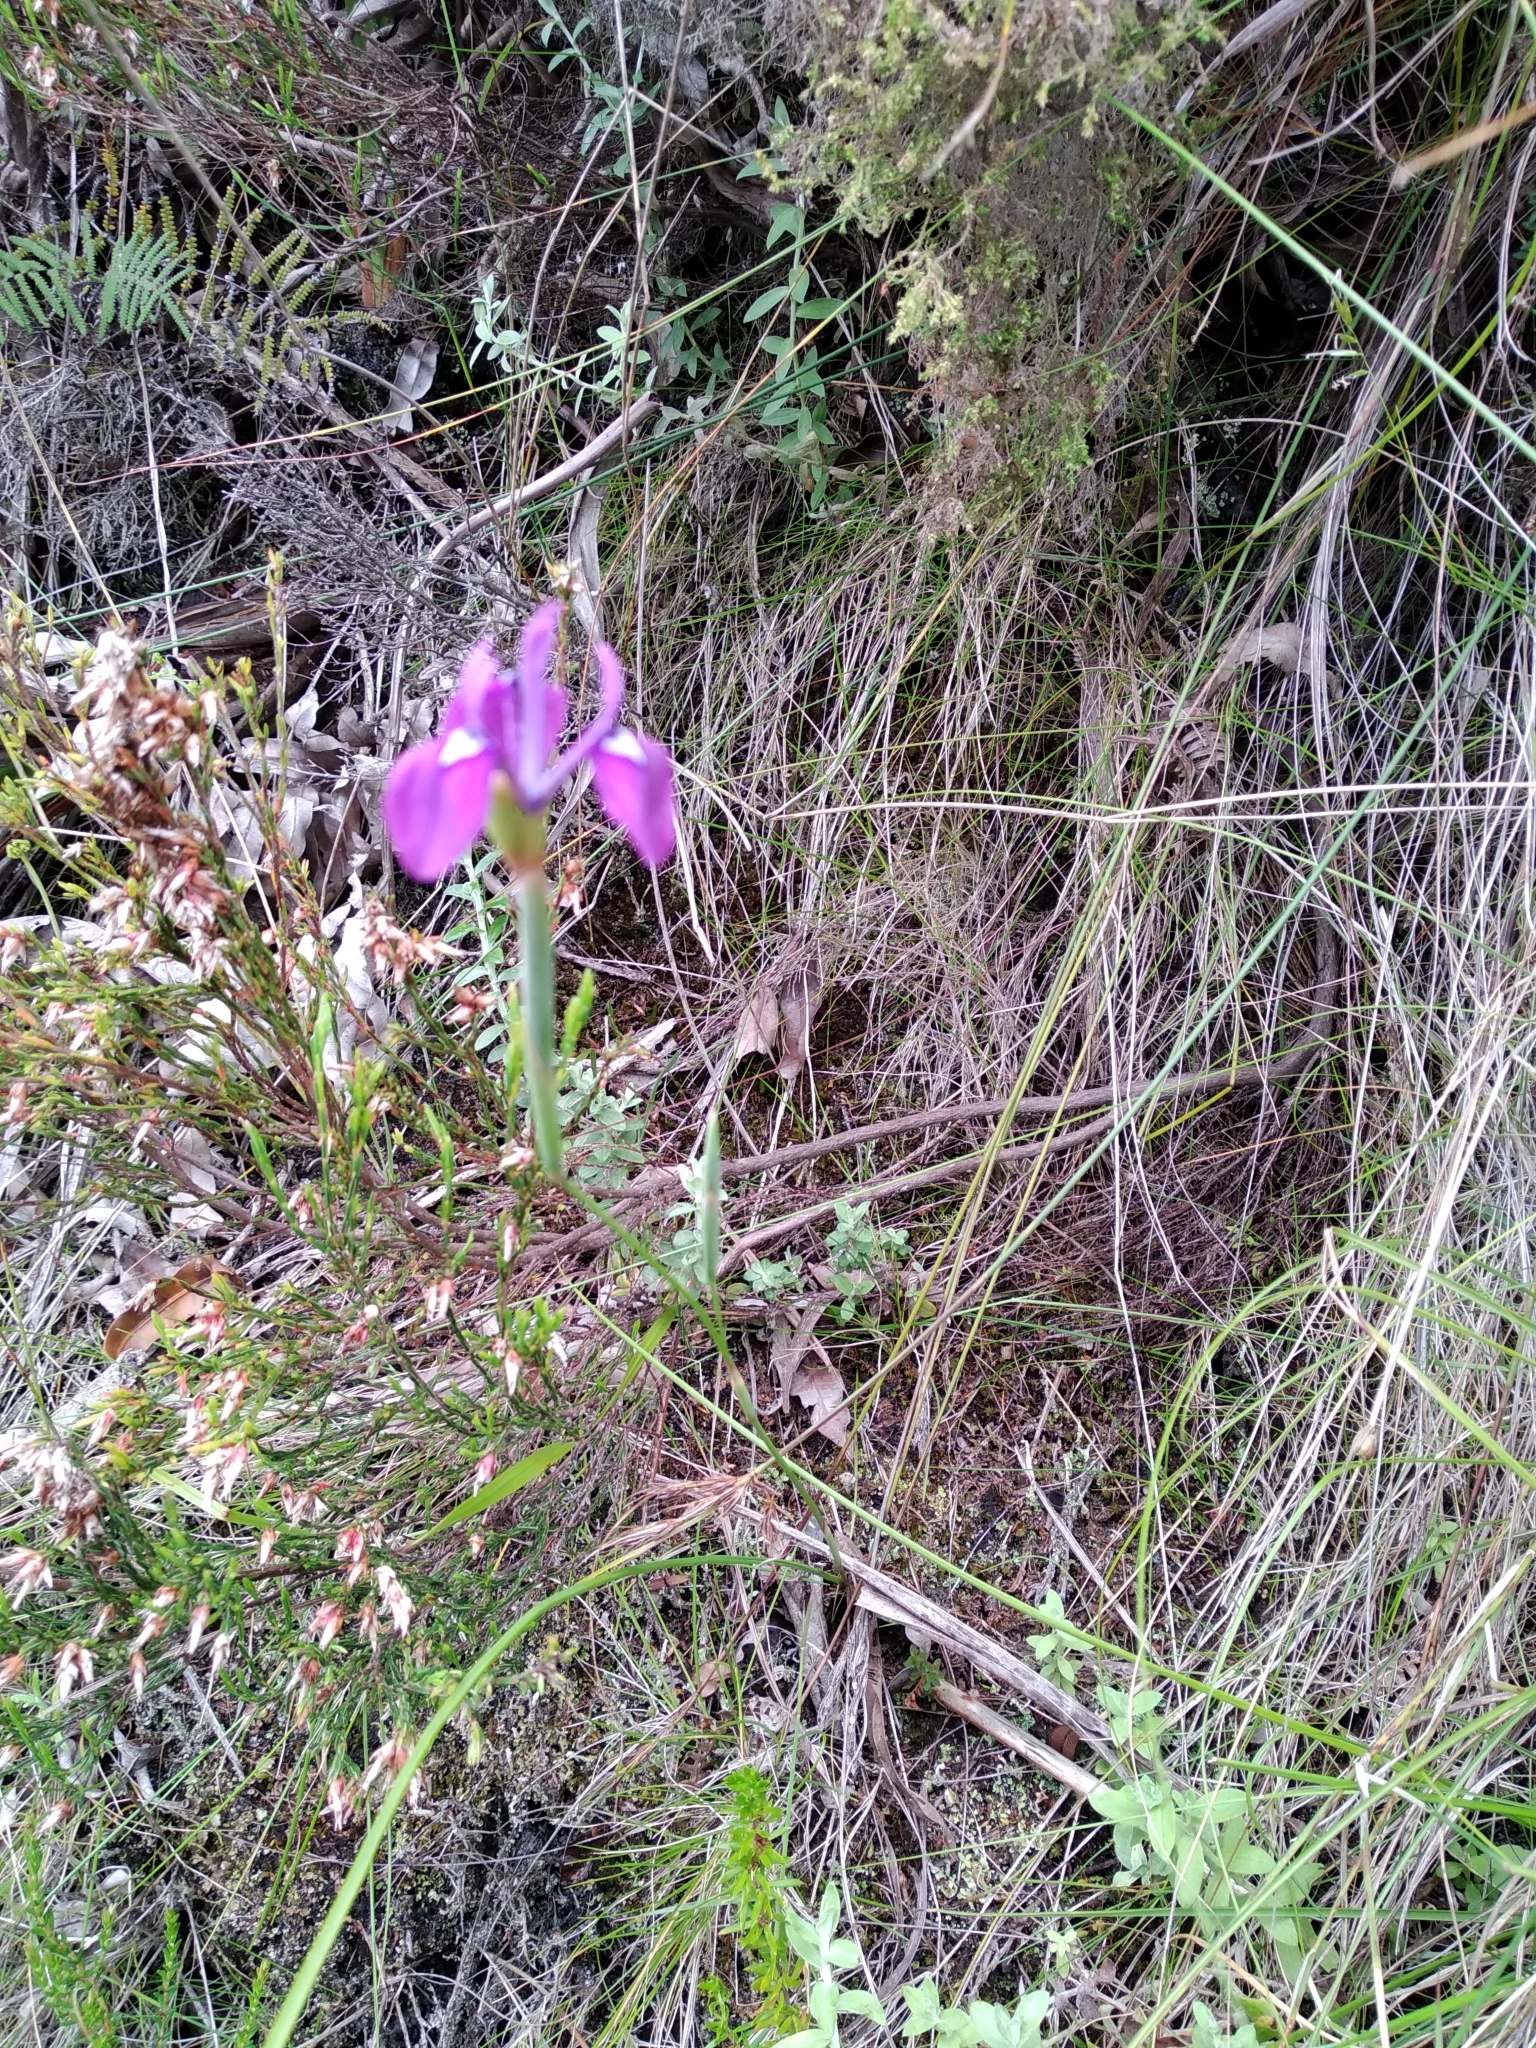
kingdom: Plantae
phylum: Tracheophyta
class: Liliopsida
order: Asparagales
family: Iridaceae
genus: Moraea
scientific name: Moraea tripetala
